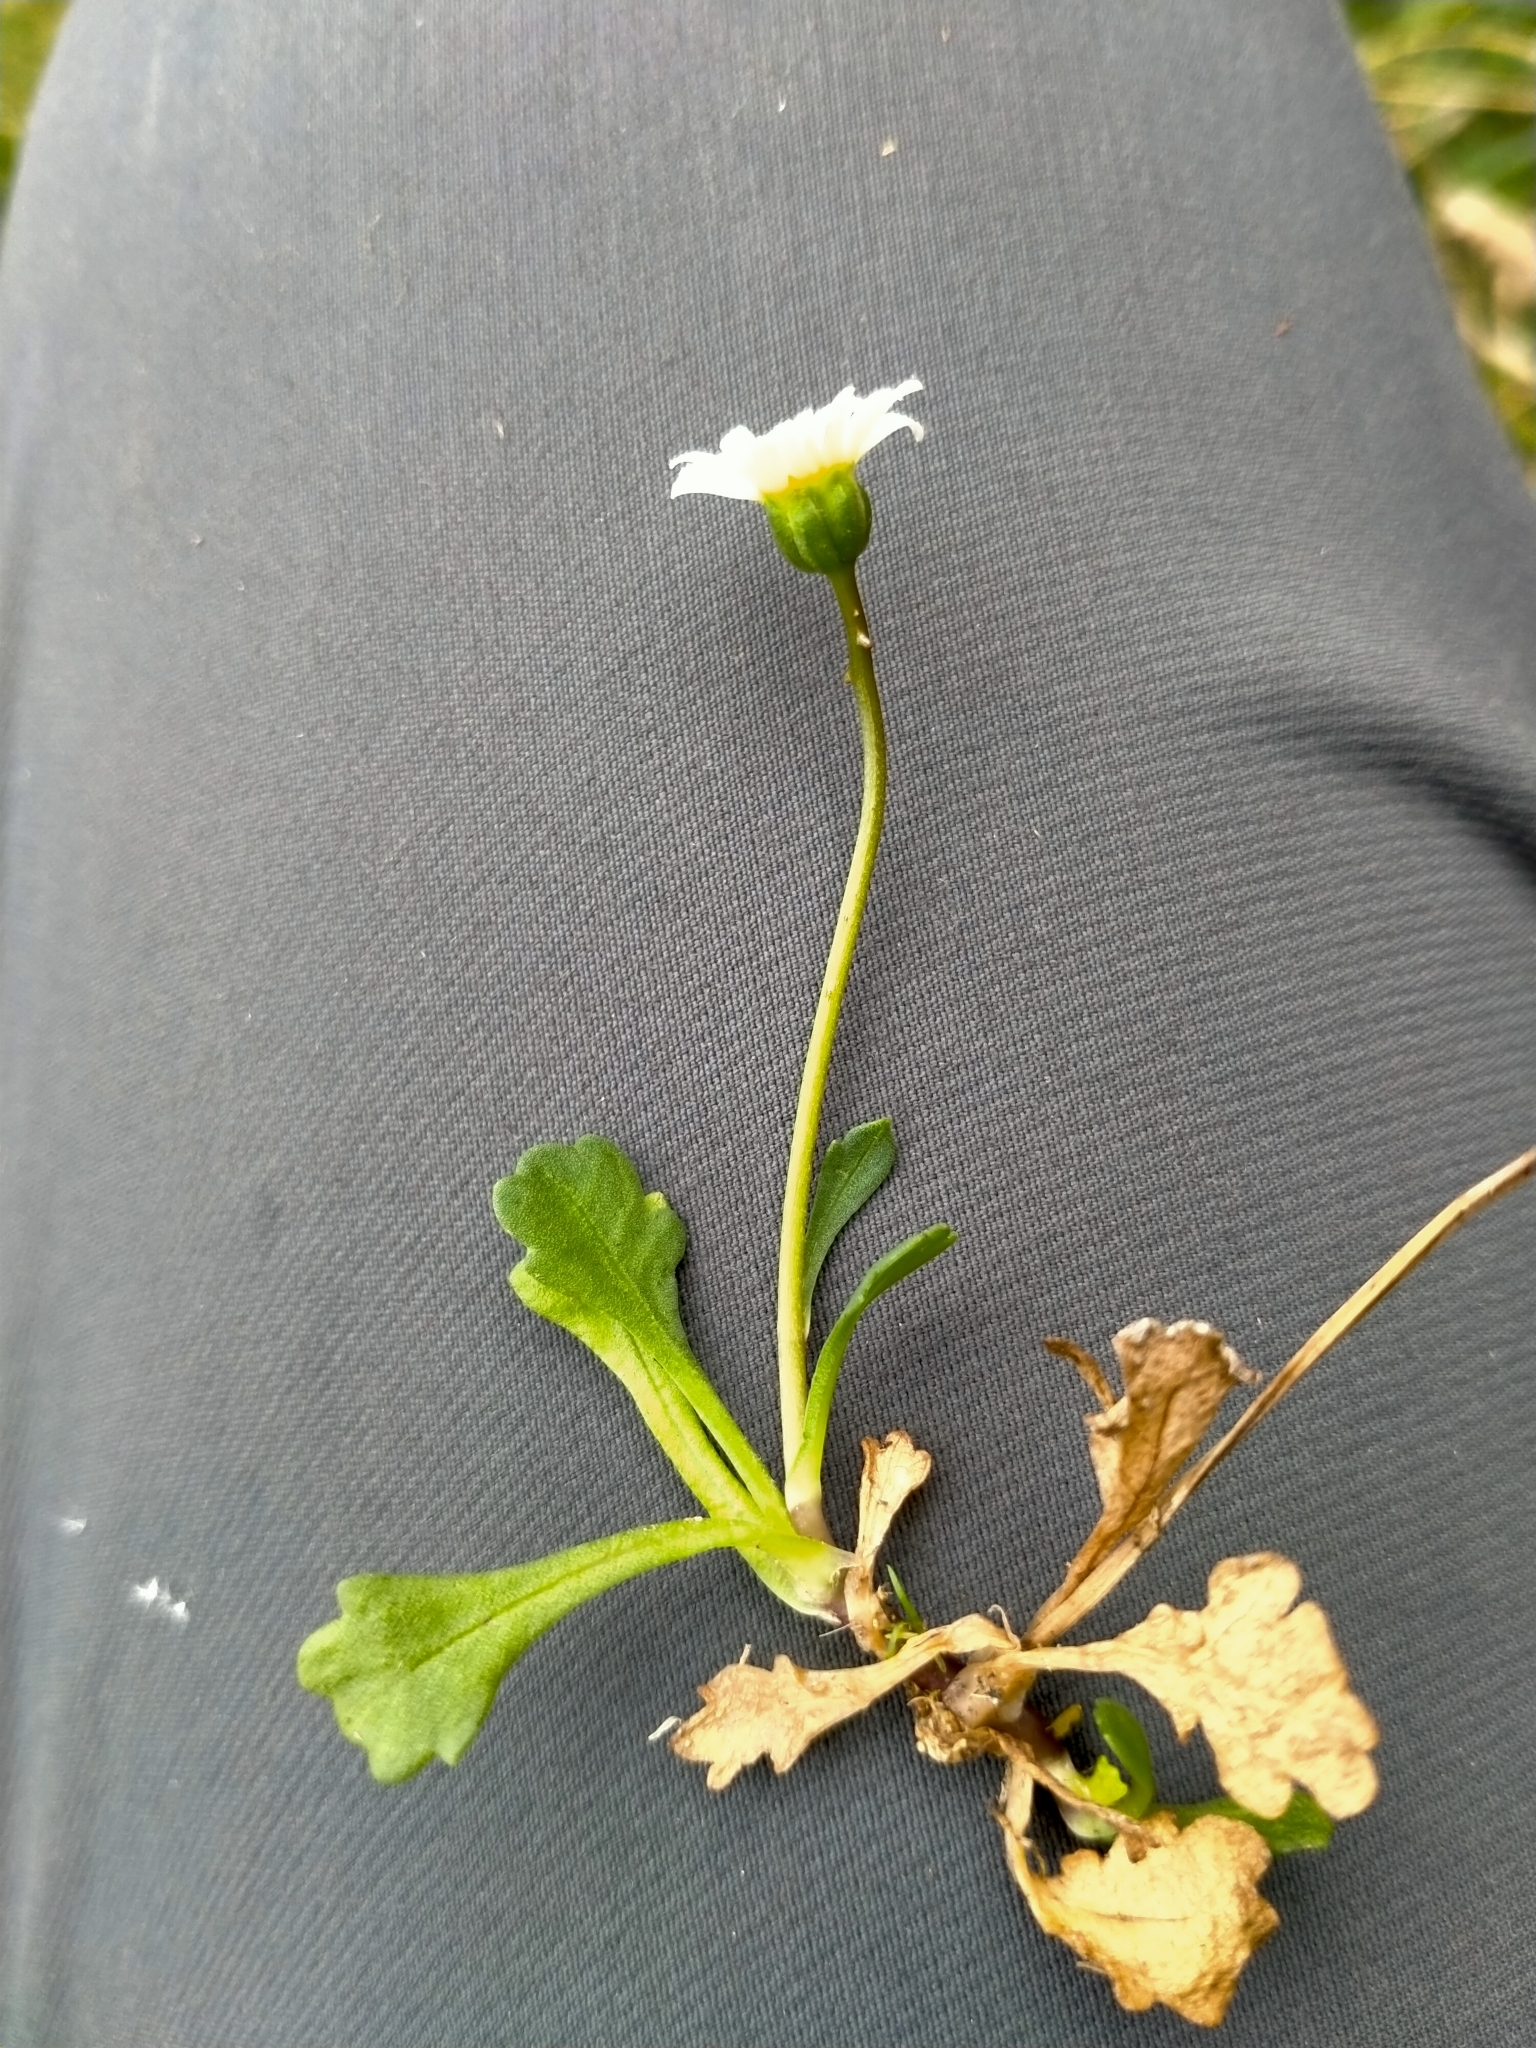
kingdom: Plantae
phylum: Tracheophyta
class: Magnoliopsida
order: Asterales
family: Asteraceae
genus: Brachyscome
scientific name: Brachyscome radicata
